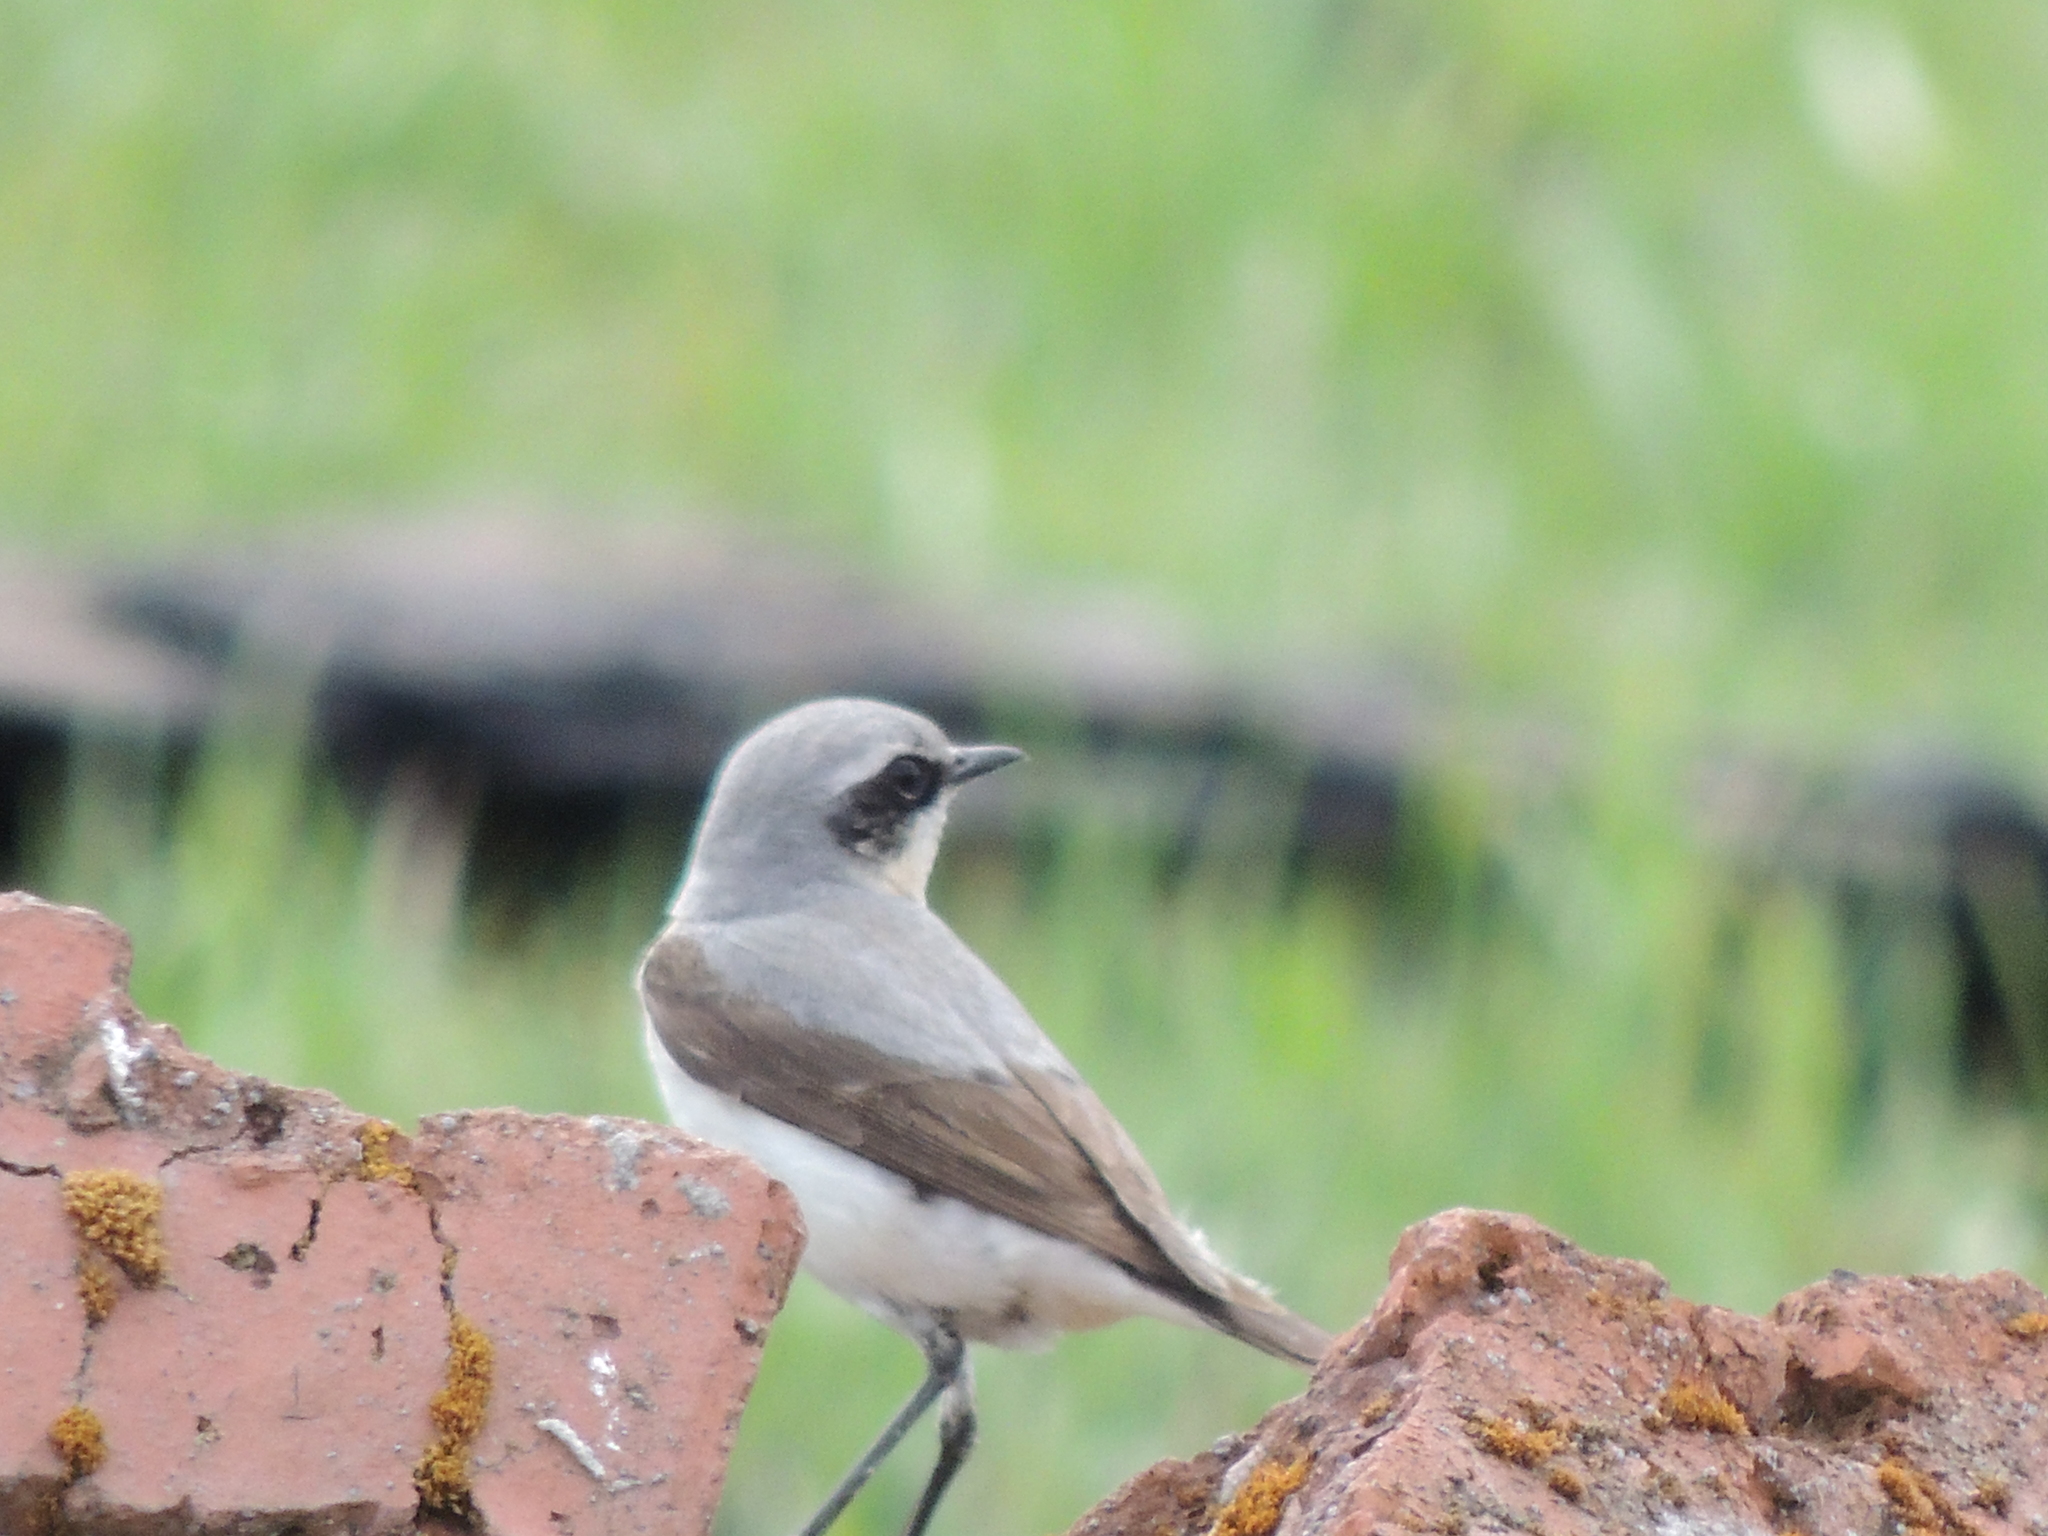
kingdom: Animalia
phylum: Chordata
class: Aves
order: Passeriformes
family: Muscicapidae
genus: Oenanthe
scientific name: Oenanthe oenanthe
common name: Northern wheatear
